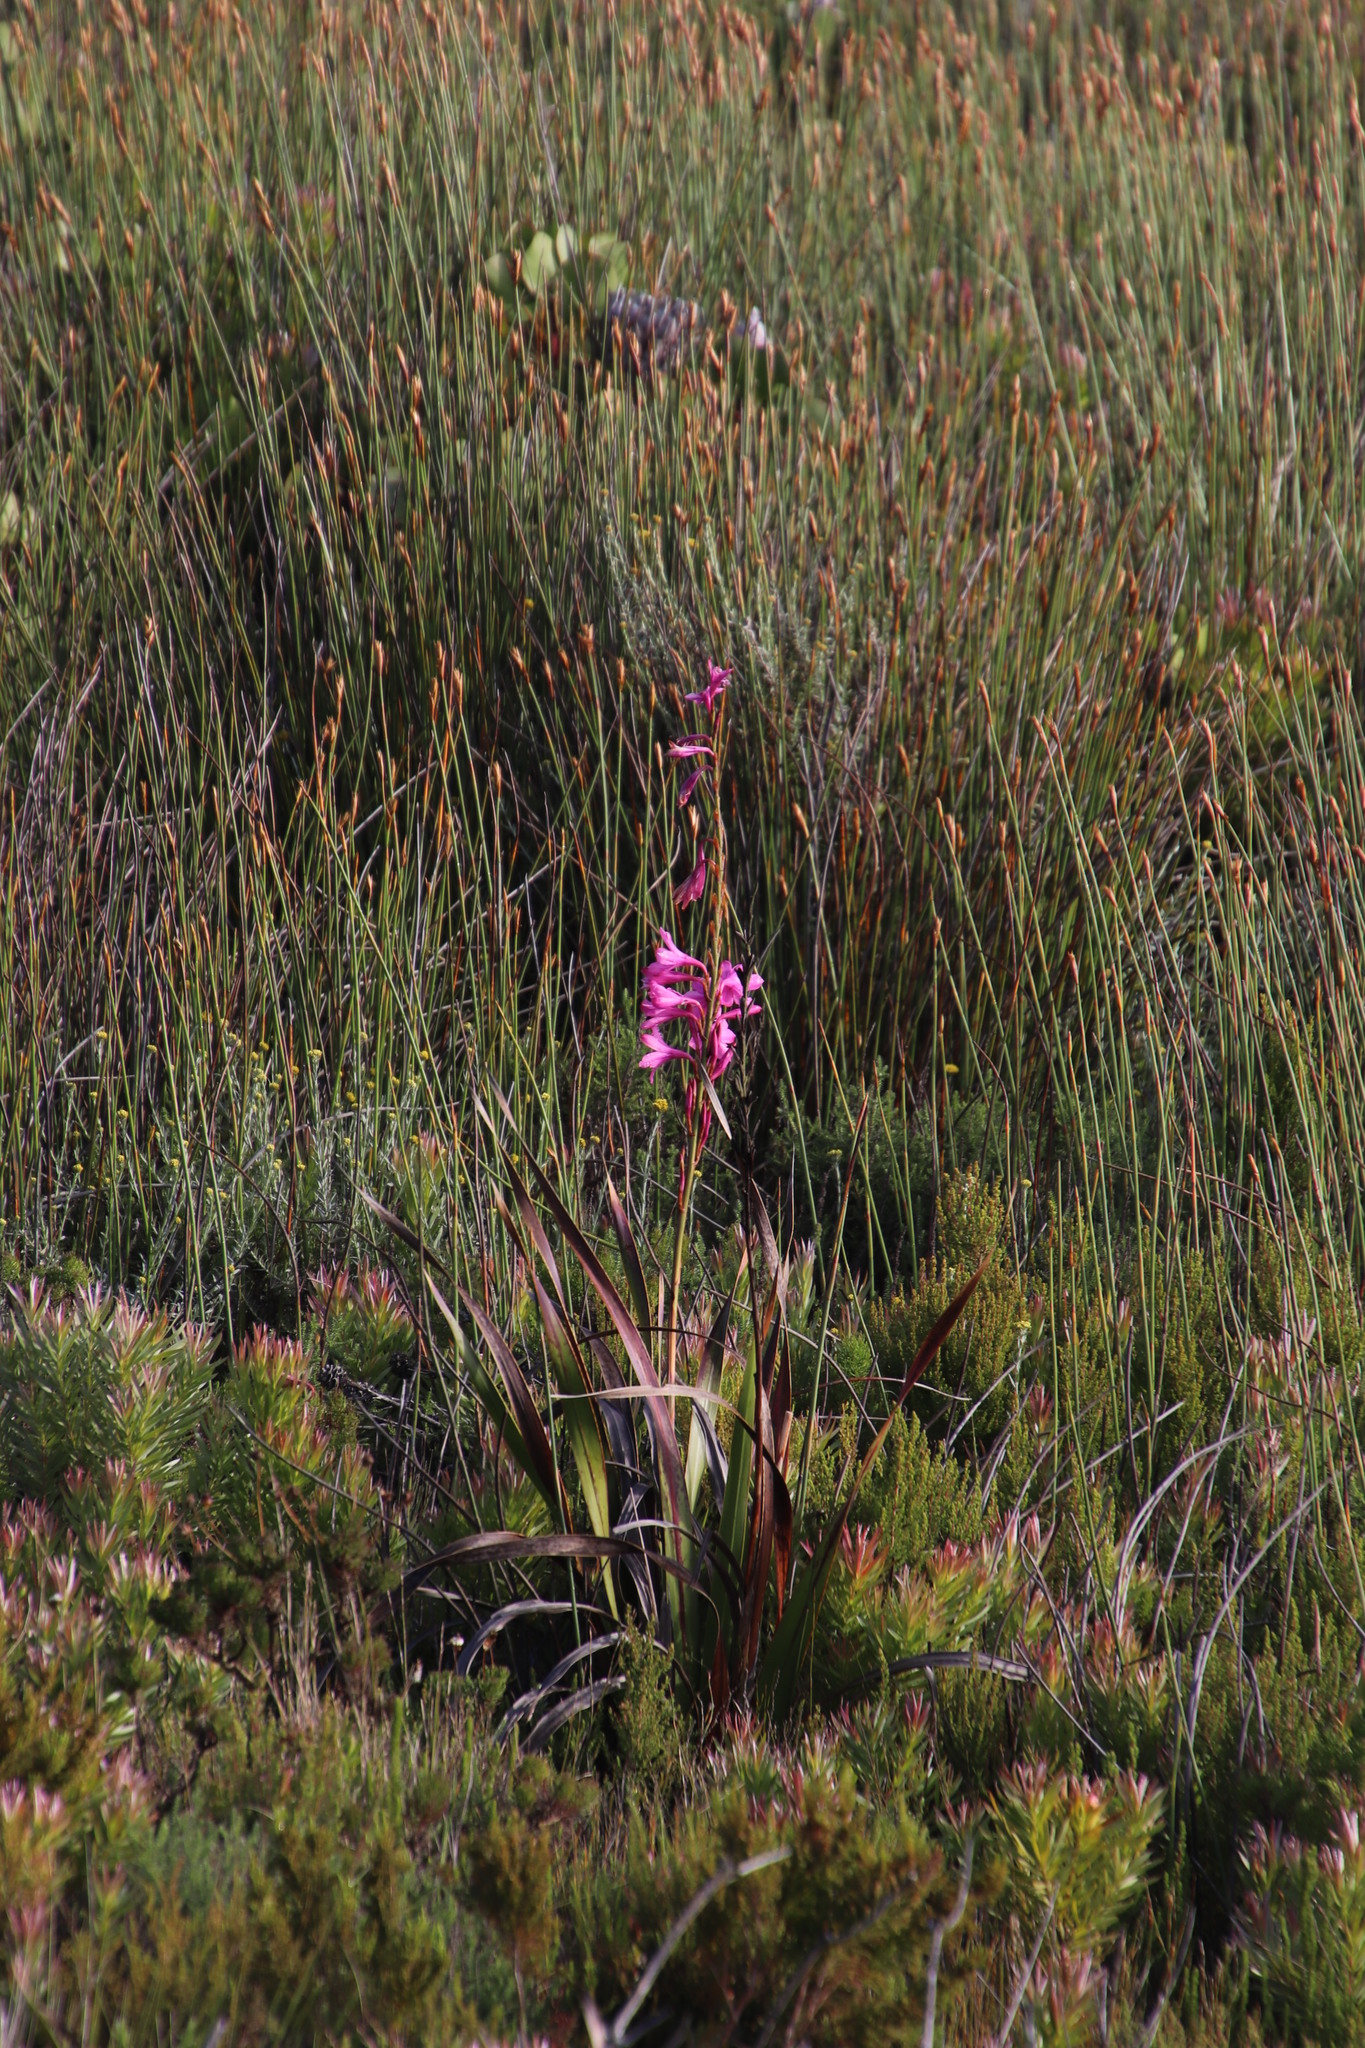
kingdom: Plantae
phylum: Tracheophyta
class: Liliopsida
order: Asparagales
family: Iridaceae
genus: Watsonia
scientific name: Watsonia borbonica
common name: Bugle-lily
